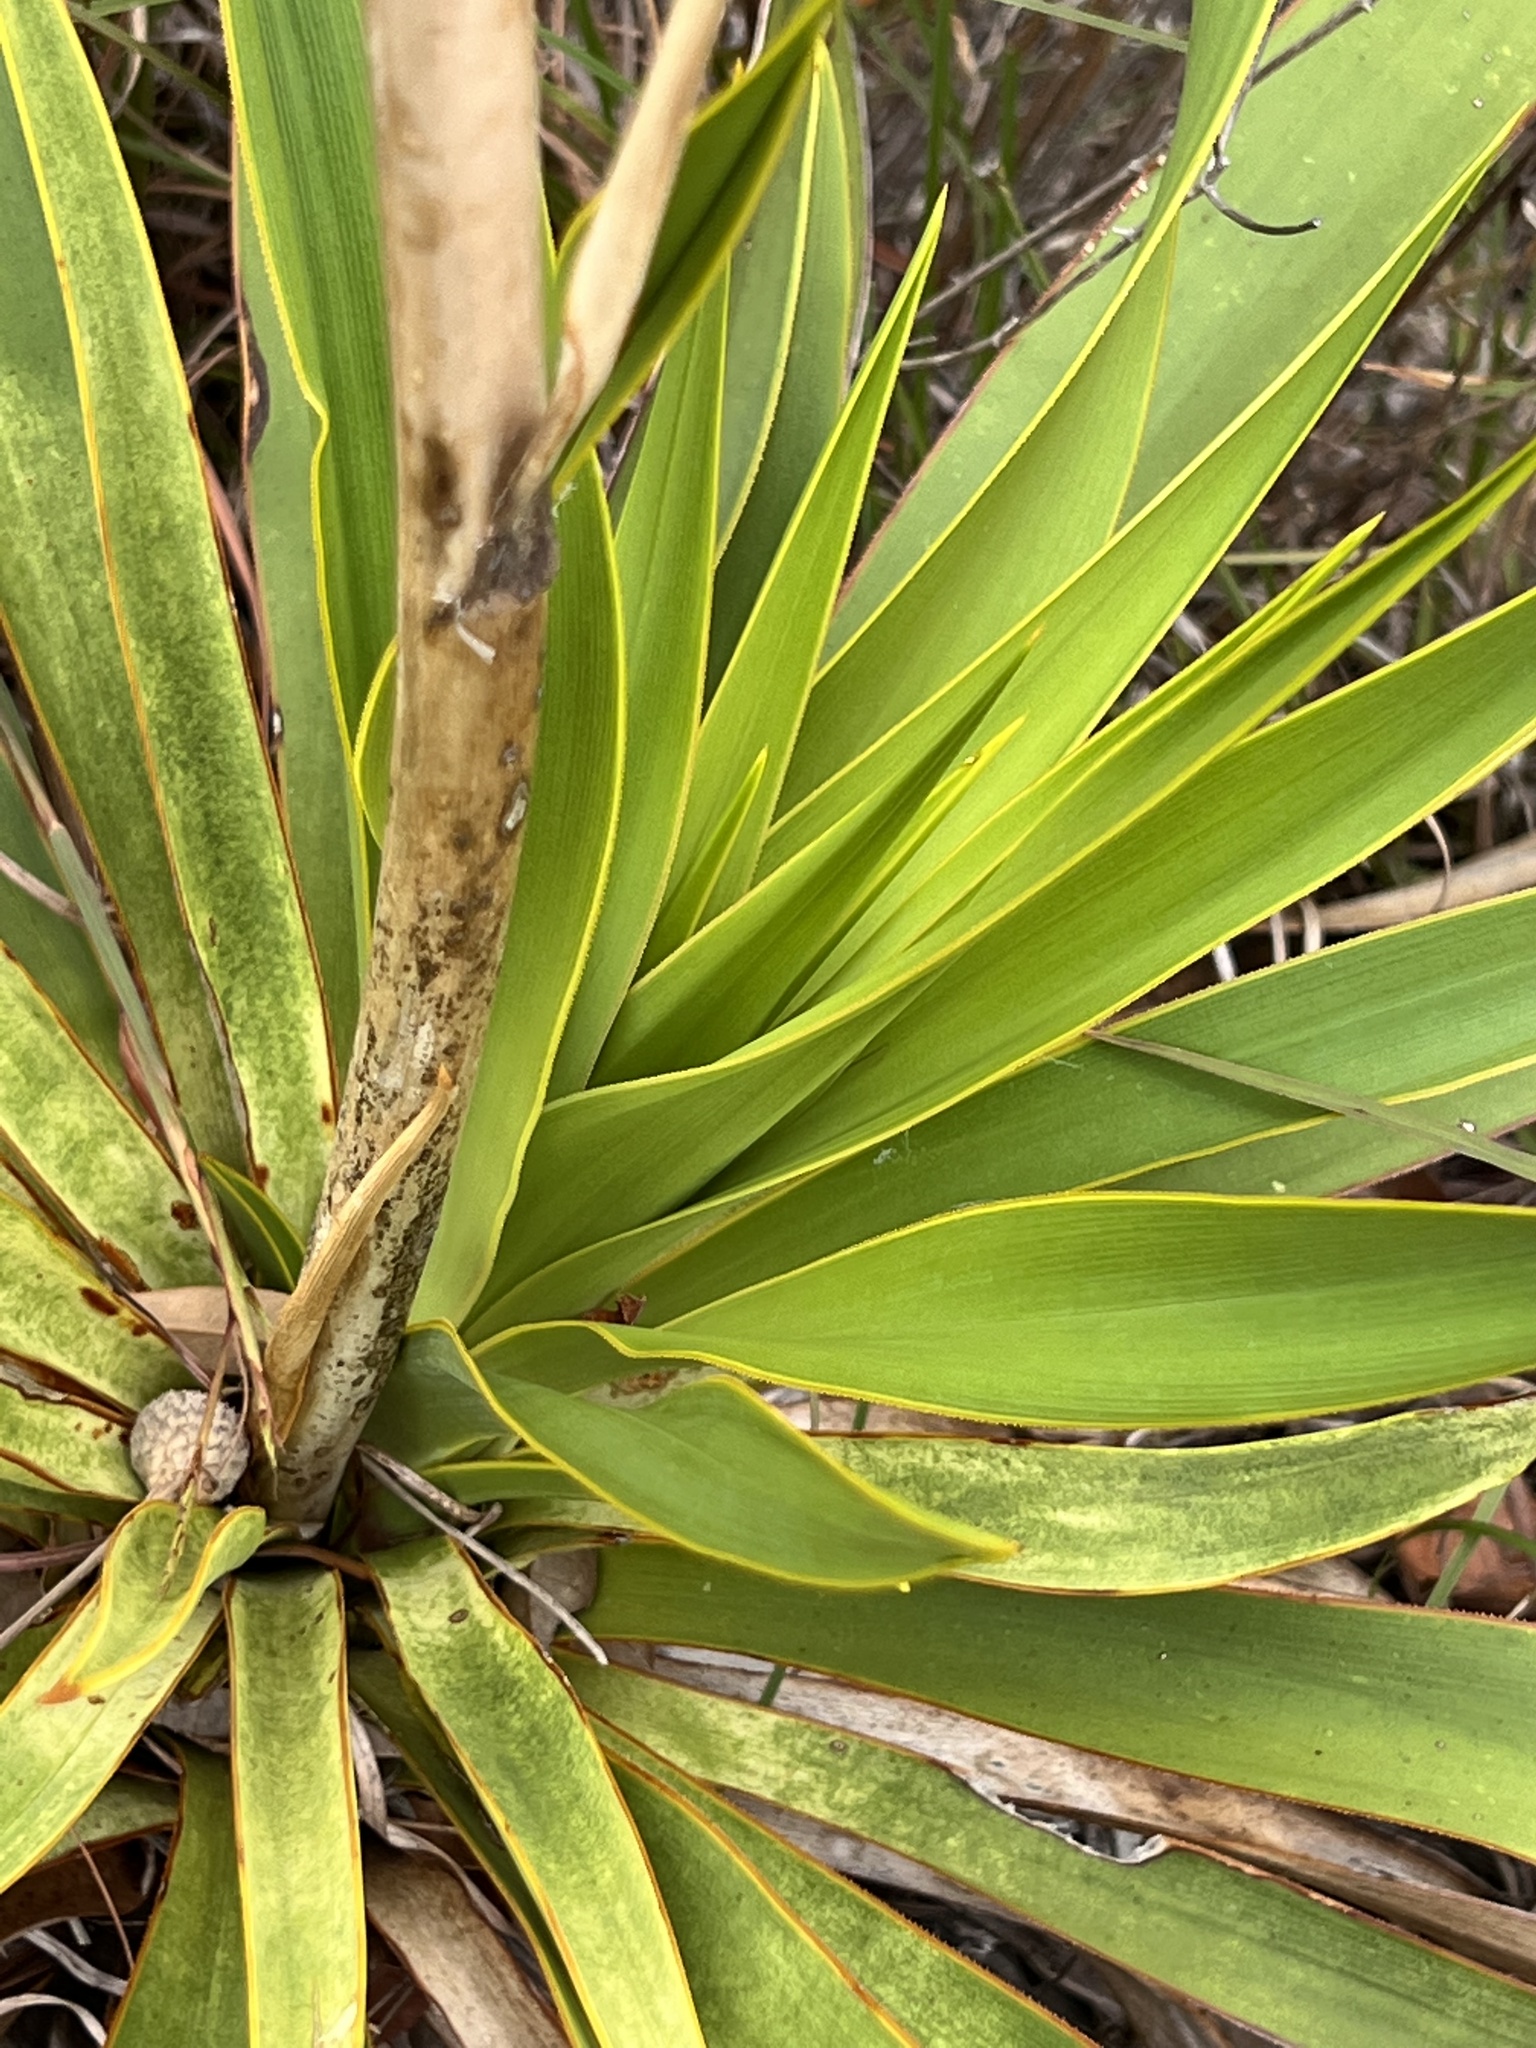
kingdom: Plantae
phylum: Tracheophyta
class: Liliopsida
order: Asparagales
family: Asparagaceae
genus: Yucca
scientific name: Yucca rupicola
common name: Twisted-leaf spanish-dagger
